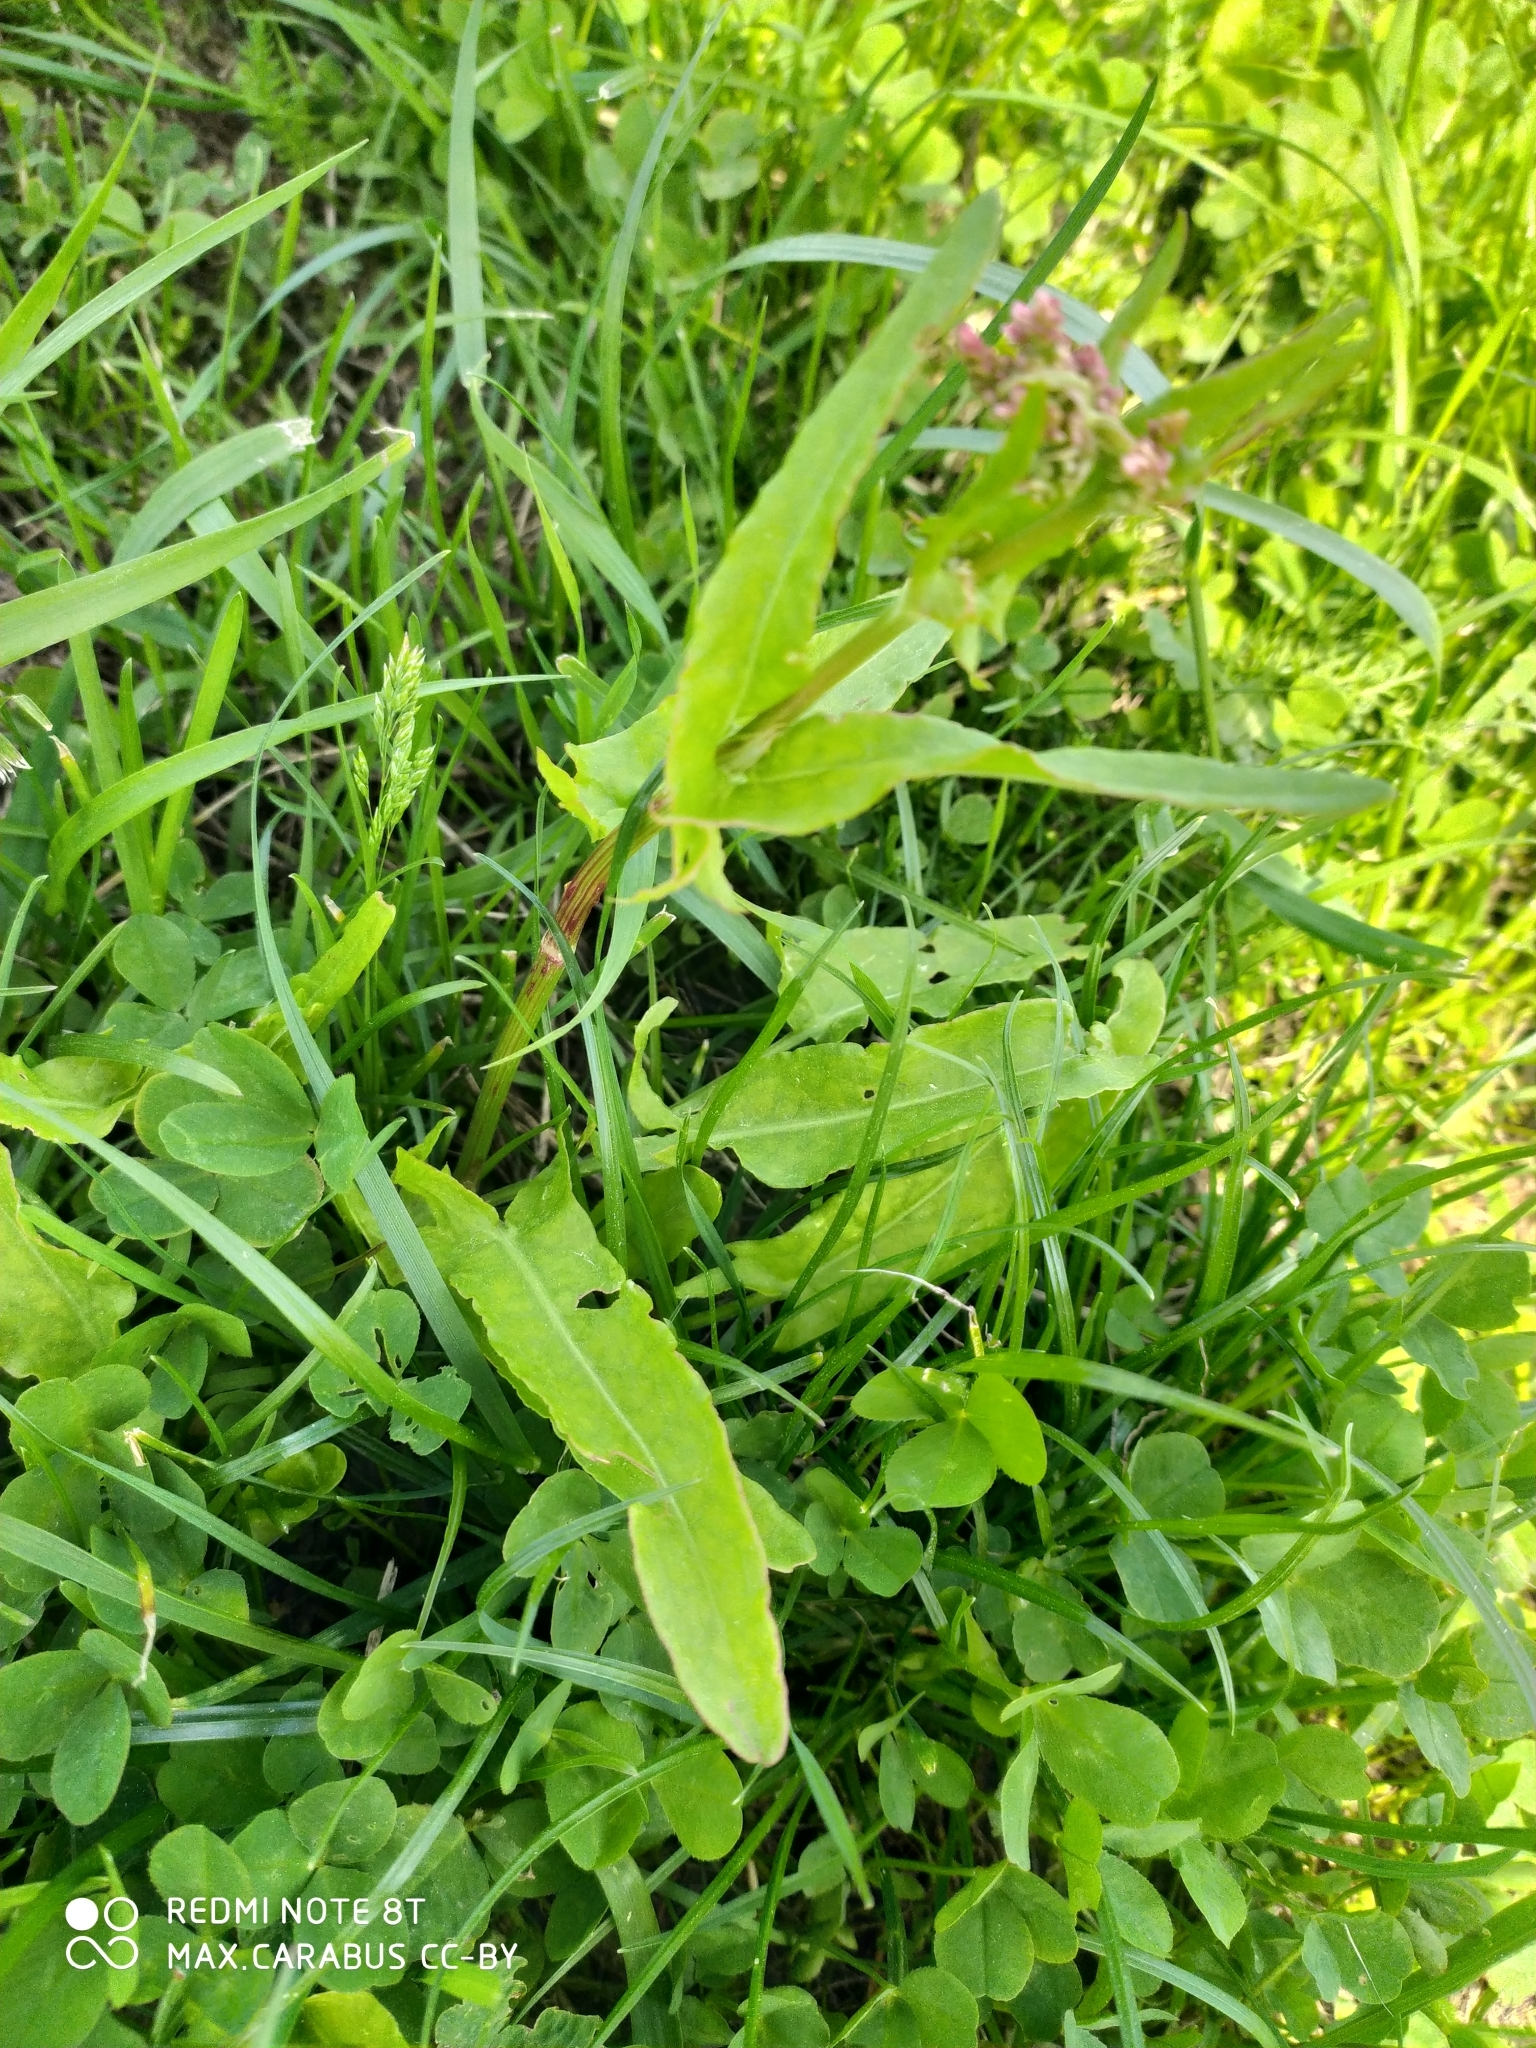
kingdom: Plantae
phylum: Tracheophyta
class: Magnoliopsida
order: Caryophyllales
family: Polygonaceae
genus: Rumex
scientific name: Rumex acetosa
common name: Garden sorrel
